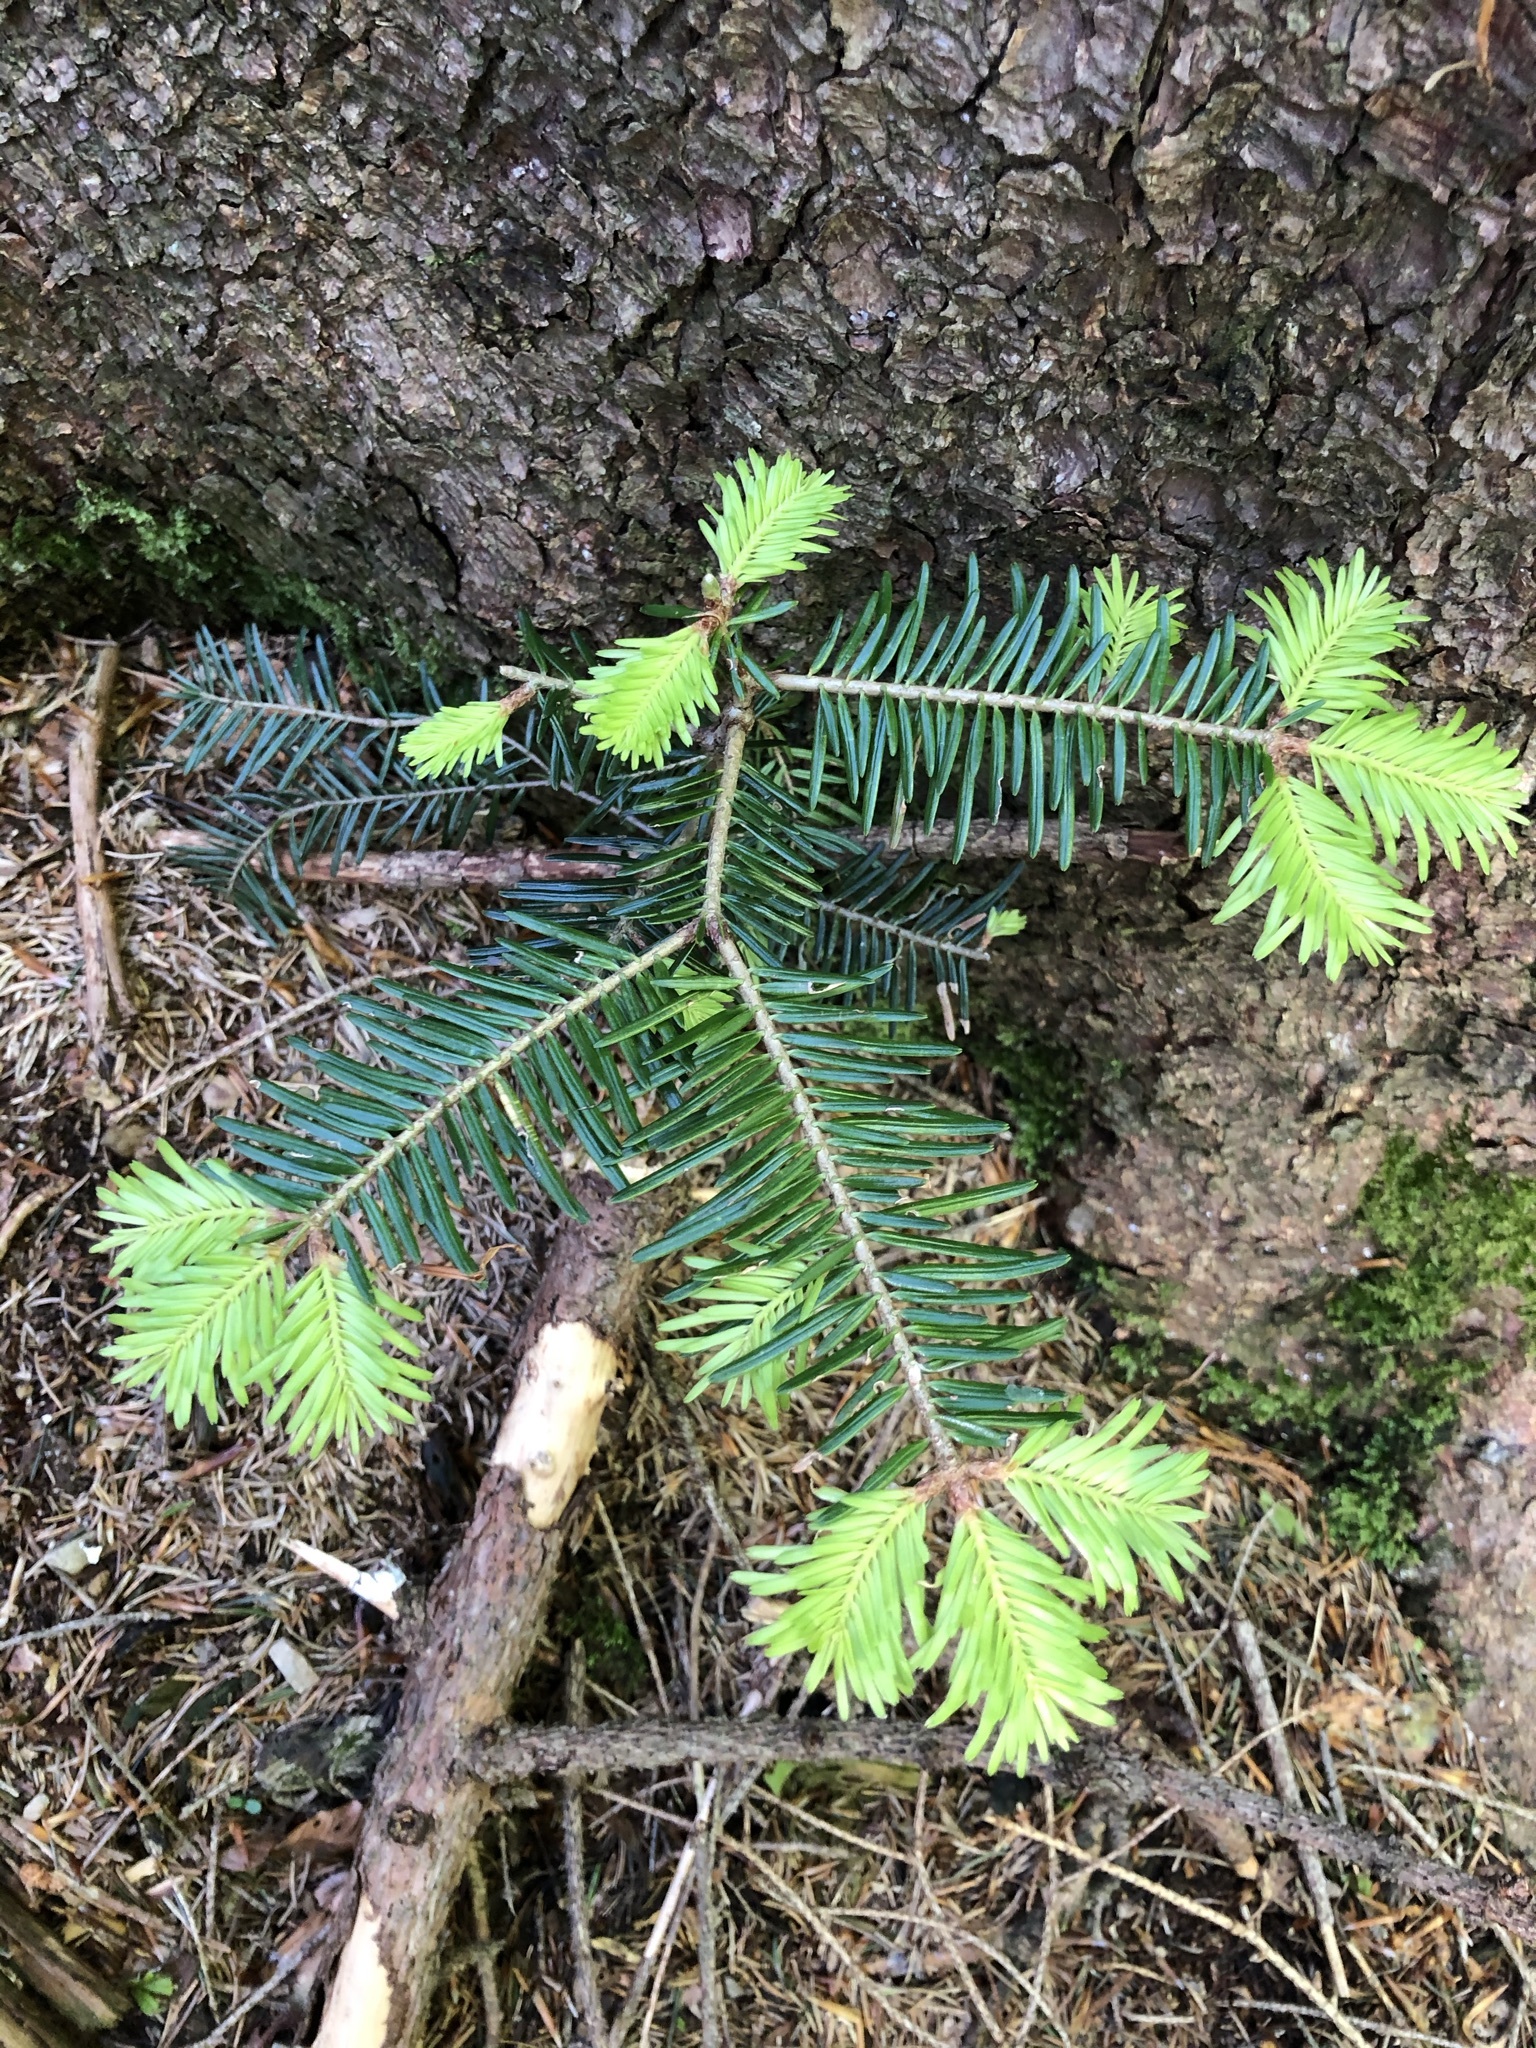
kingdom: Plantae
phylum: Tracheophyta
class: Pinopsida
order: Pinales
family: Pinaceae
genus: Abies
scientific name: Abies alba
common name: Silver fir
